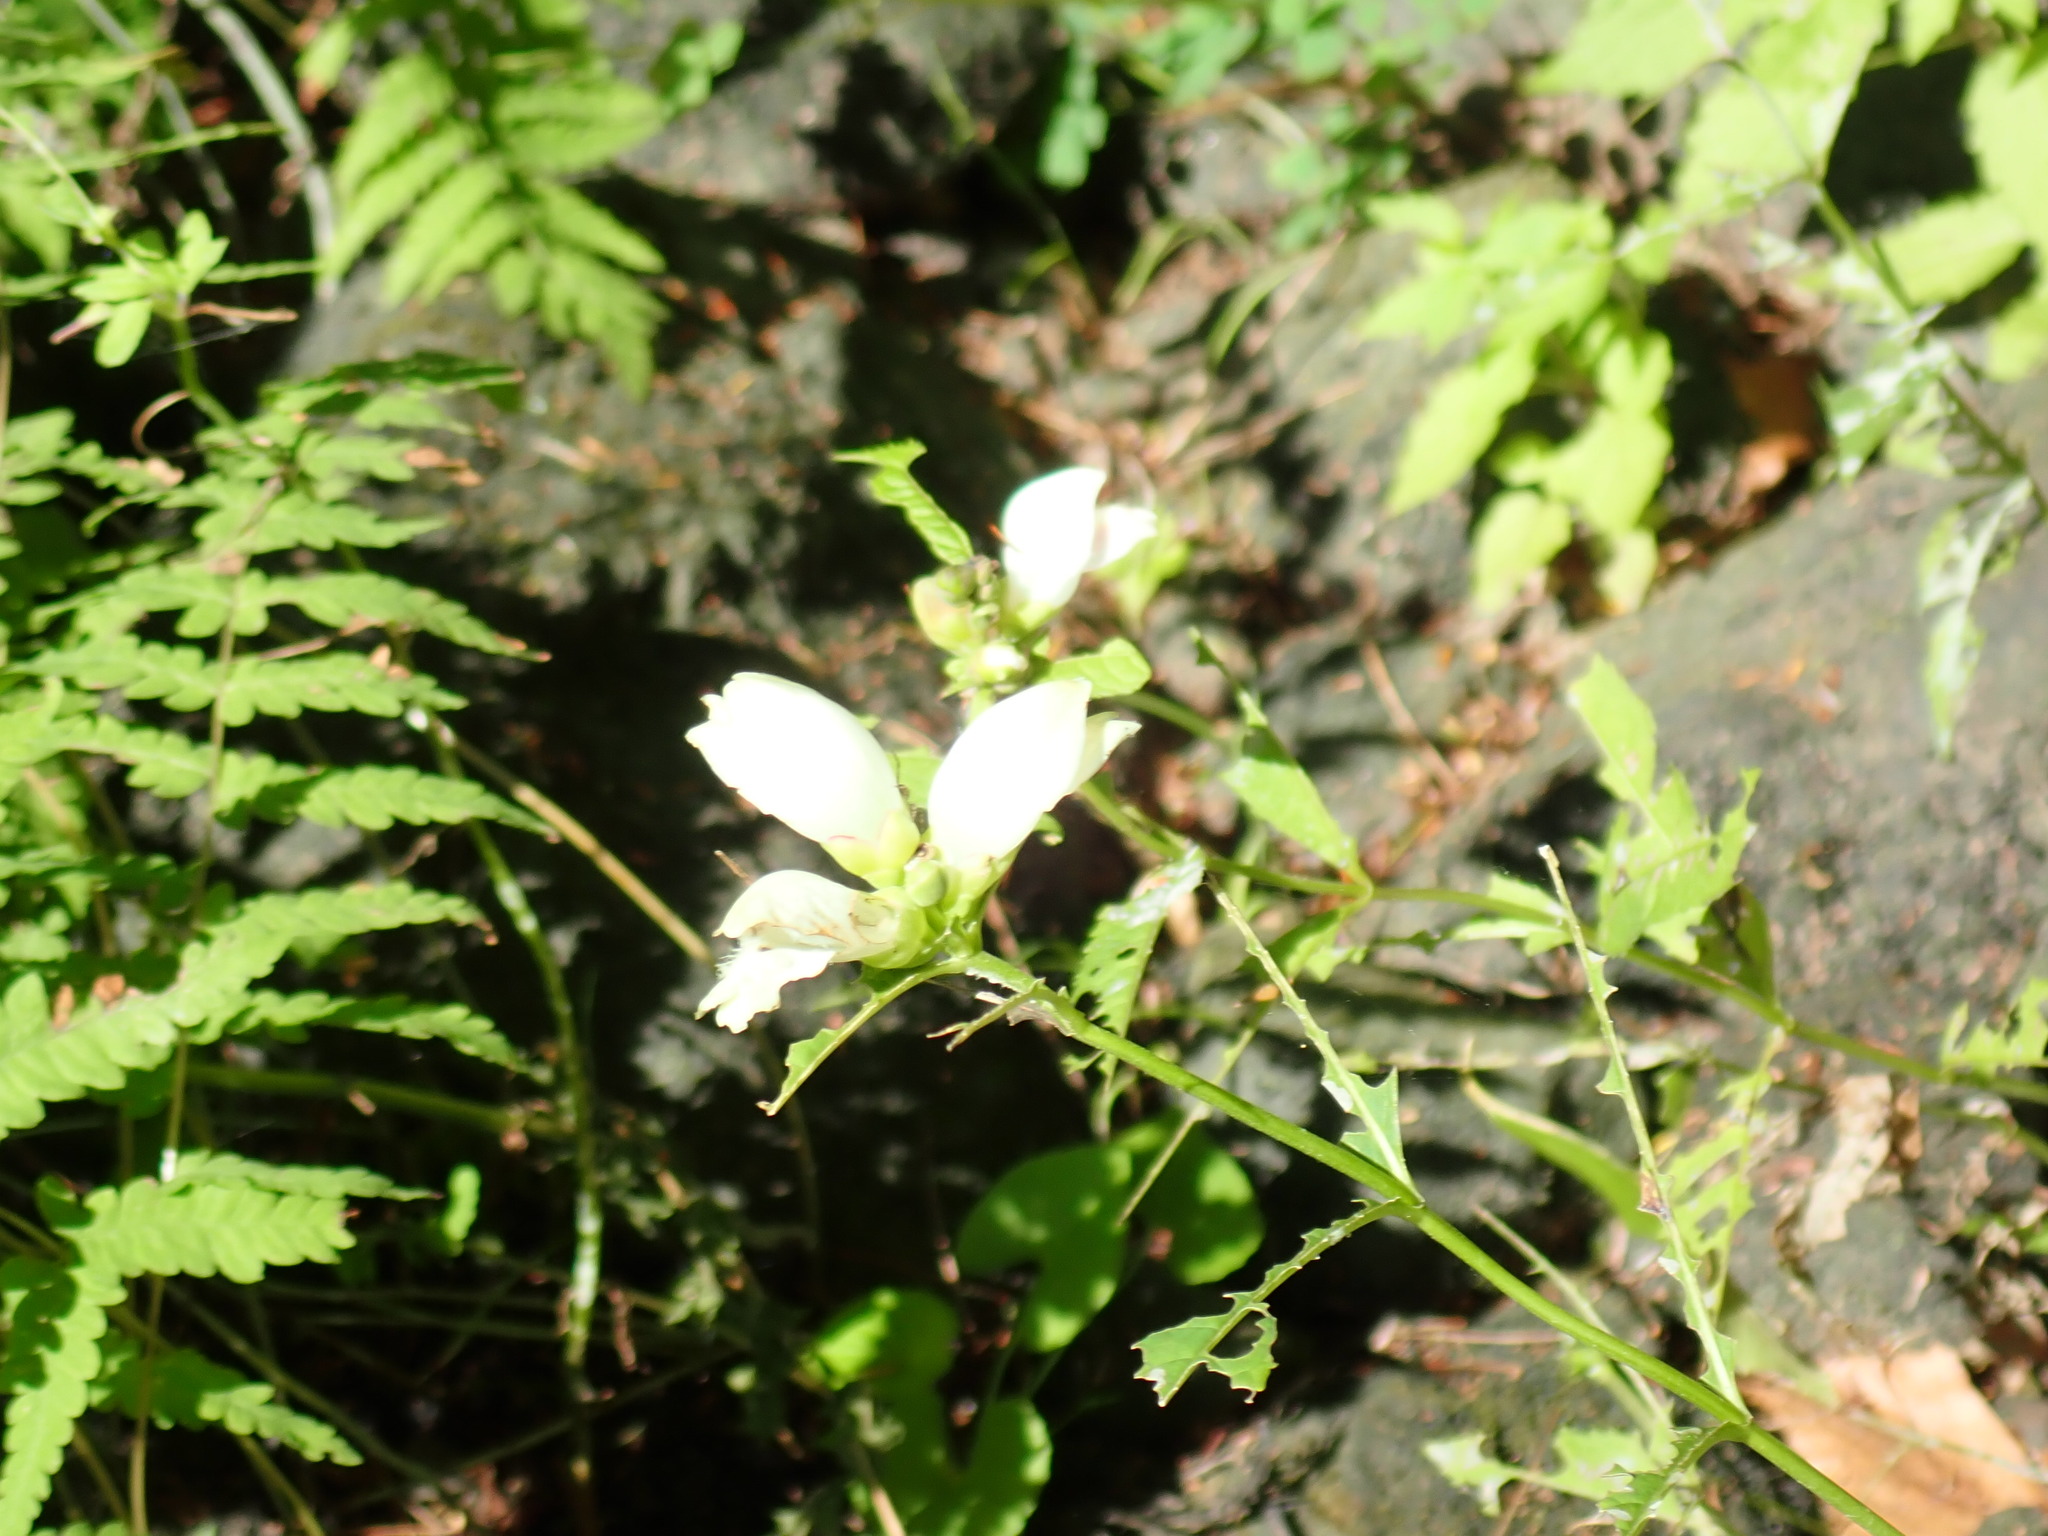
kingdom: Plantae
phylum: Tracheophyta
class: Magnoliopsida
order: Lamiales
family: Plantaginaceae
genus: Chelone
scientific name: Chelone glabra
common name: Snakehead
